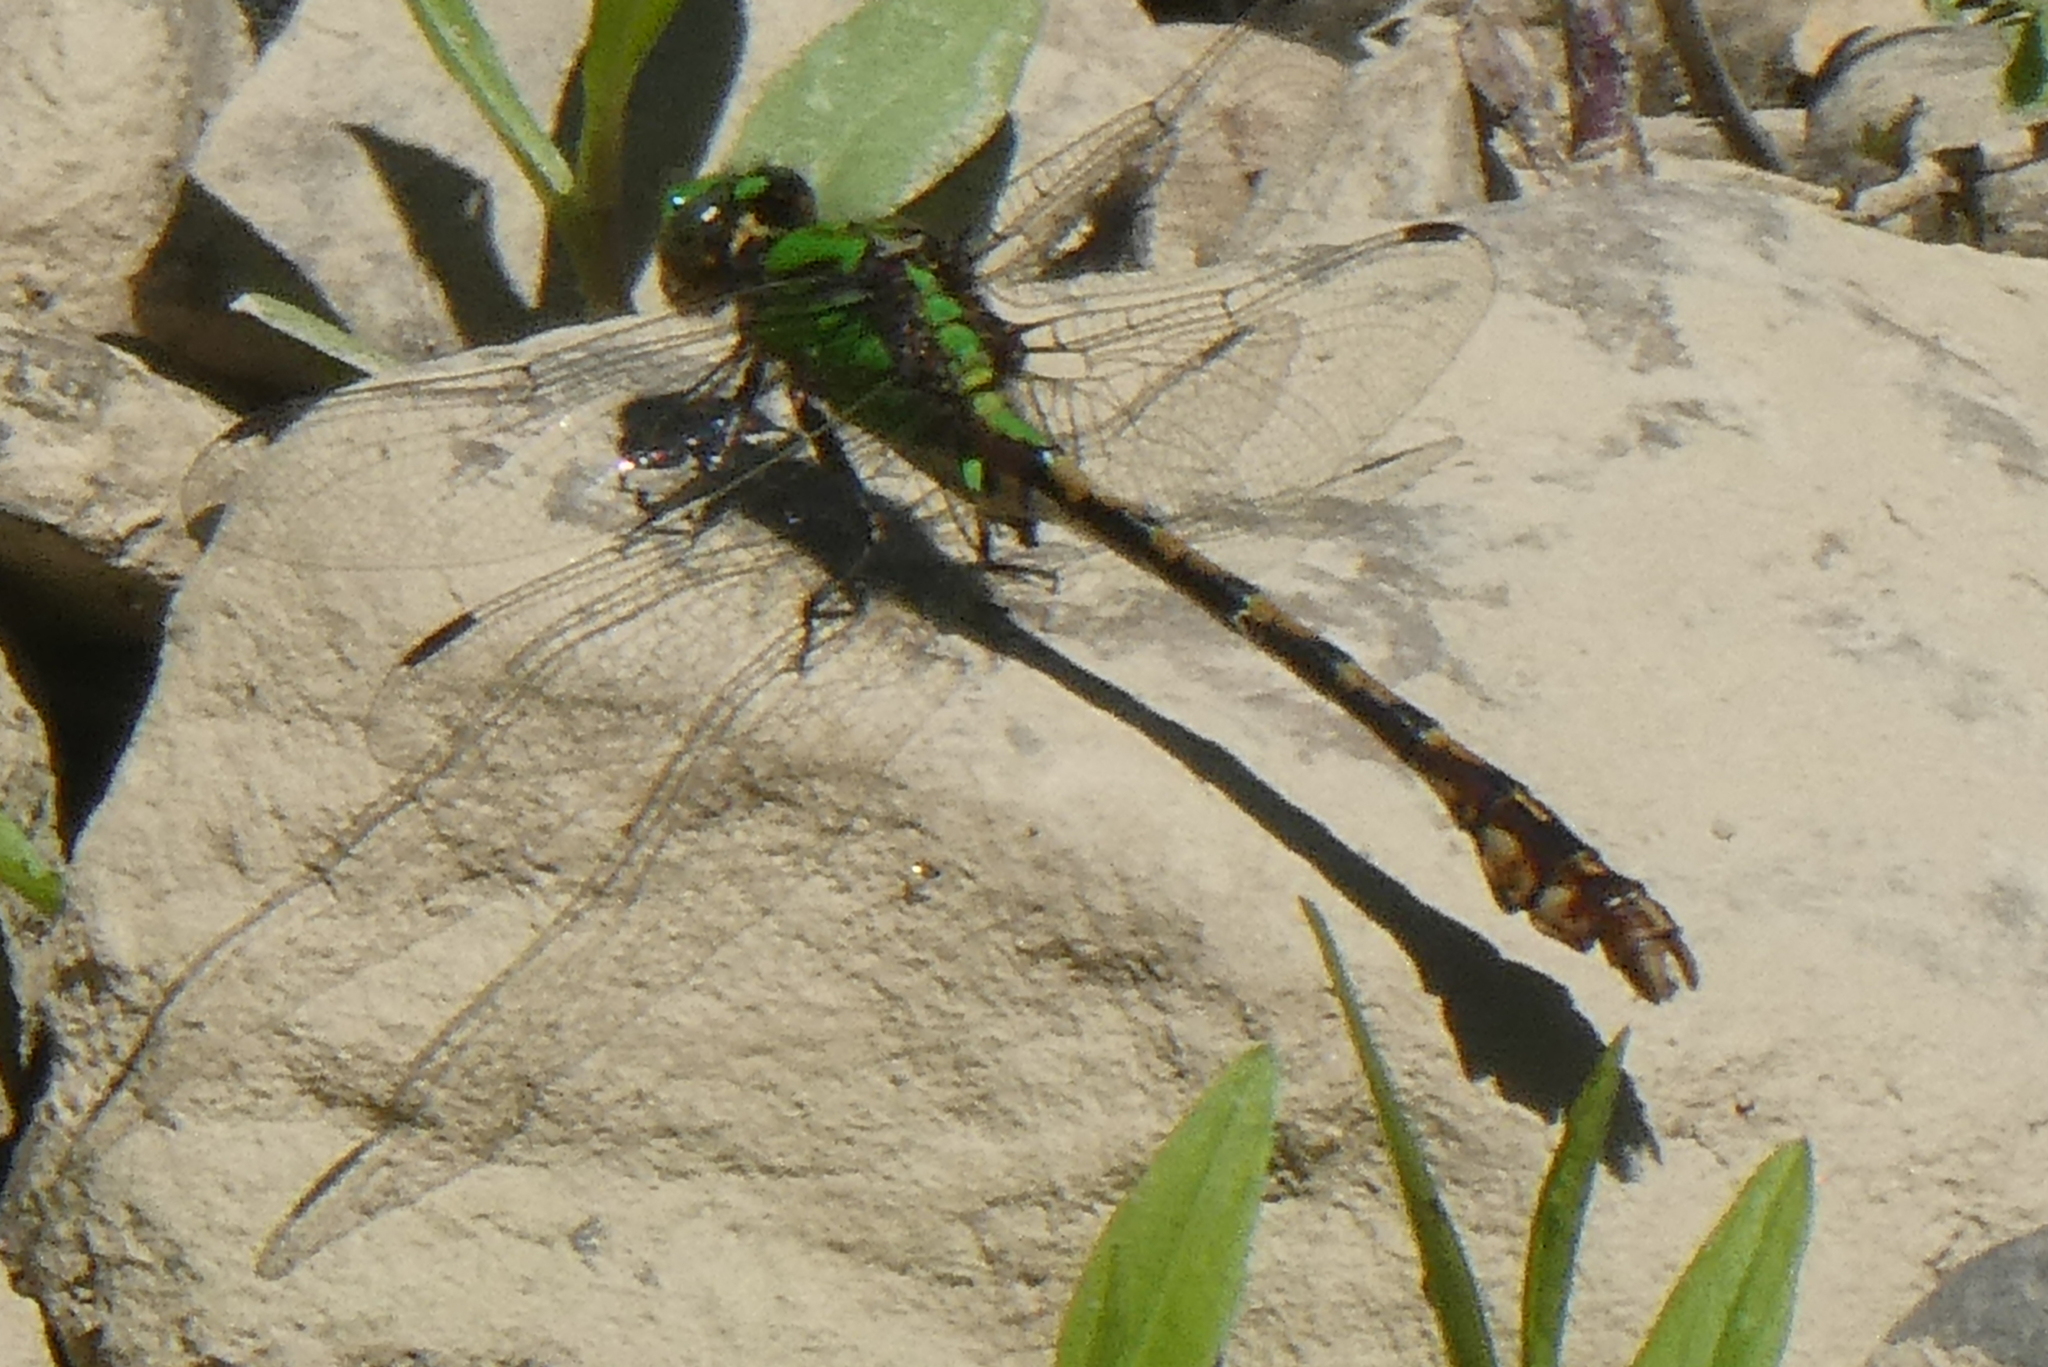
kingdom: Animalia
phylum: Arthropoda
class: Insecta
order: Odonata
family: Gomphidae
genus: Ophiogomphus
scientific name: Ophiogomphus rupinsulensis
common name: Rusty snaketail
